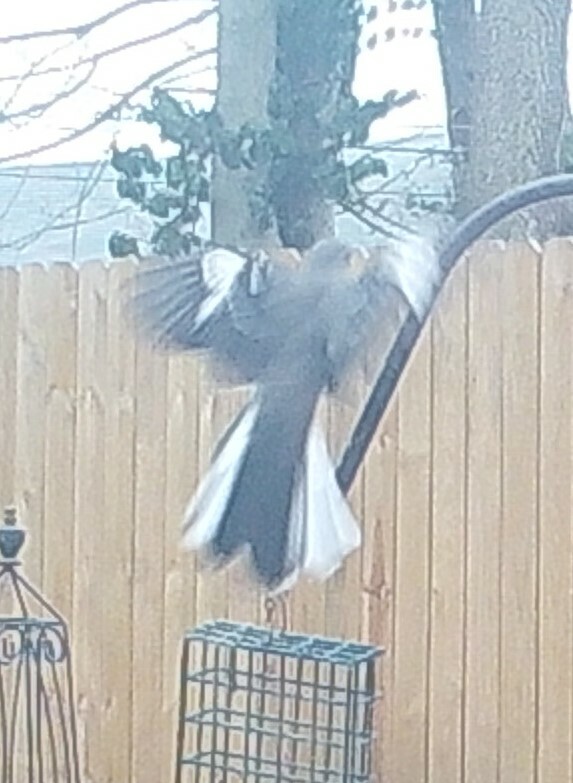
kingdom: Animalia
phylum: Chordata
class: Aves
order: Passeriformes
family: Mimidae
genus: Mimus
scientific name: Mimus polyglottos
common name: Northern mockingbird
